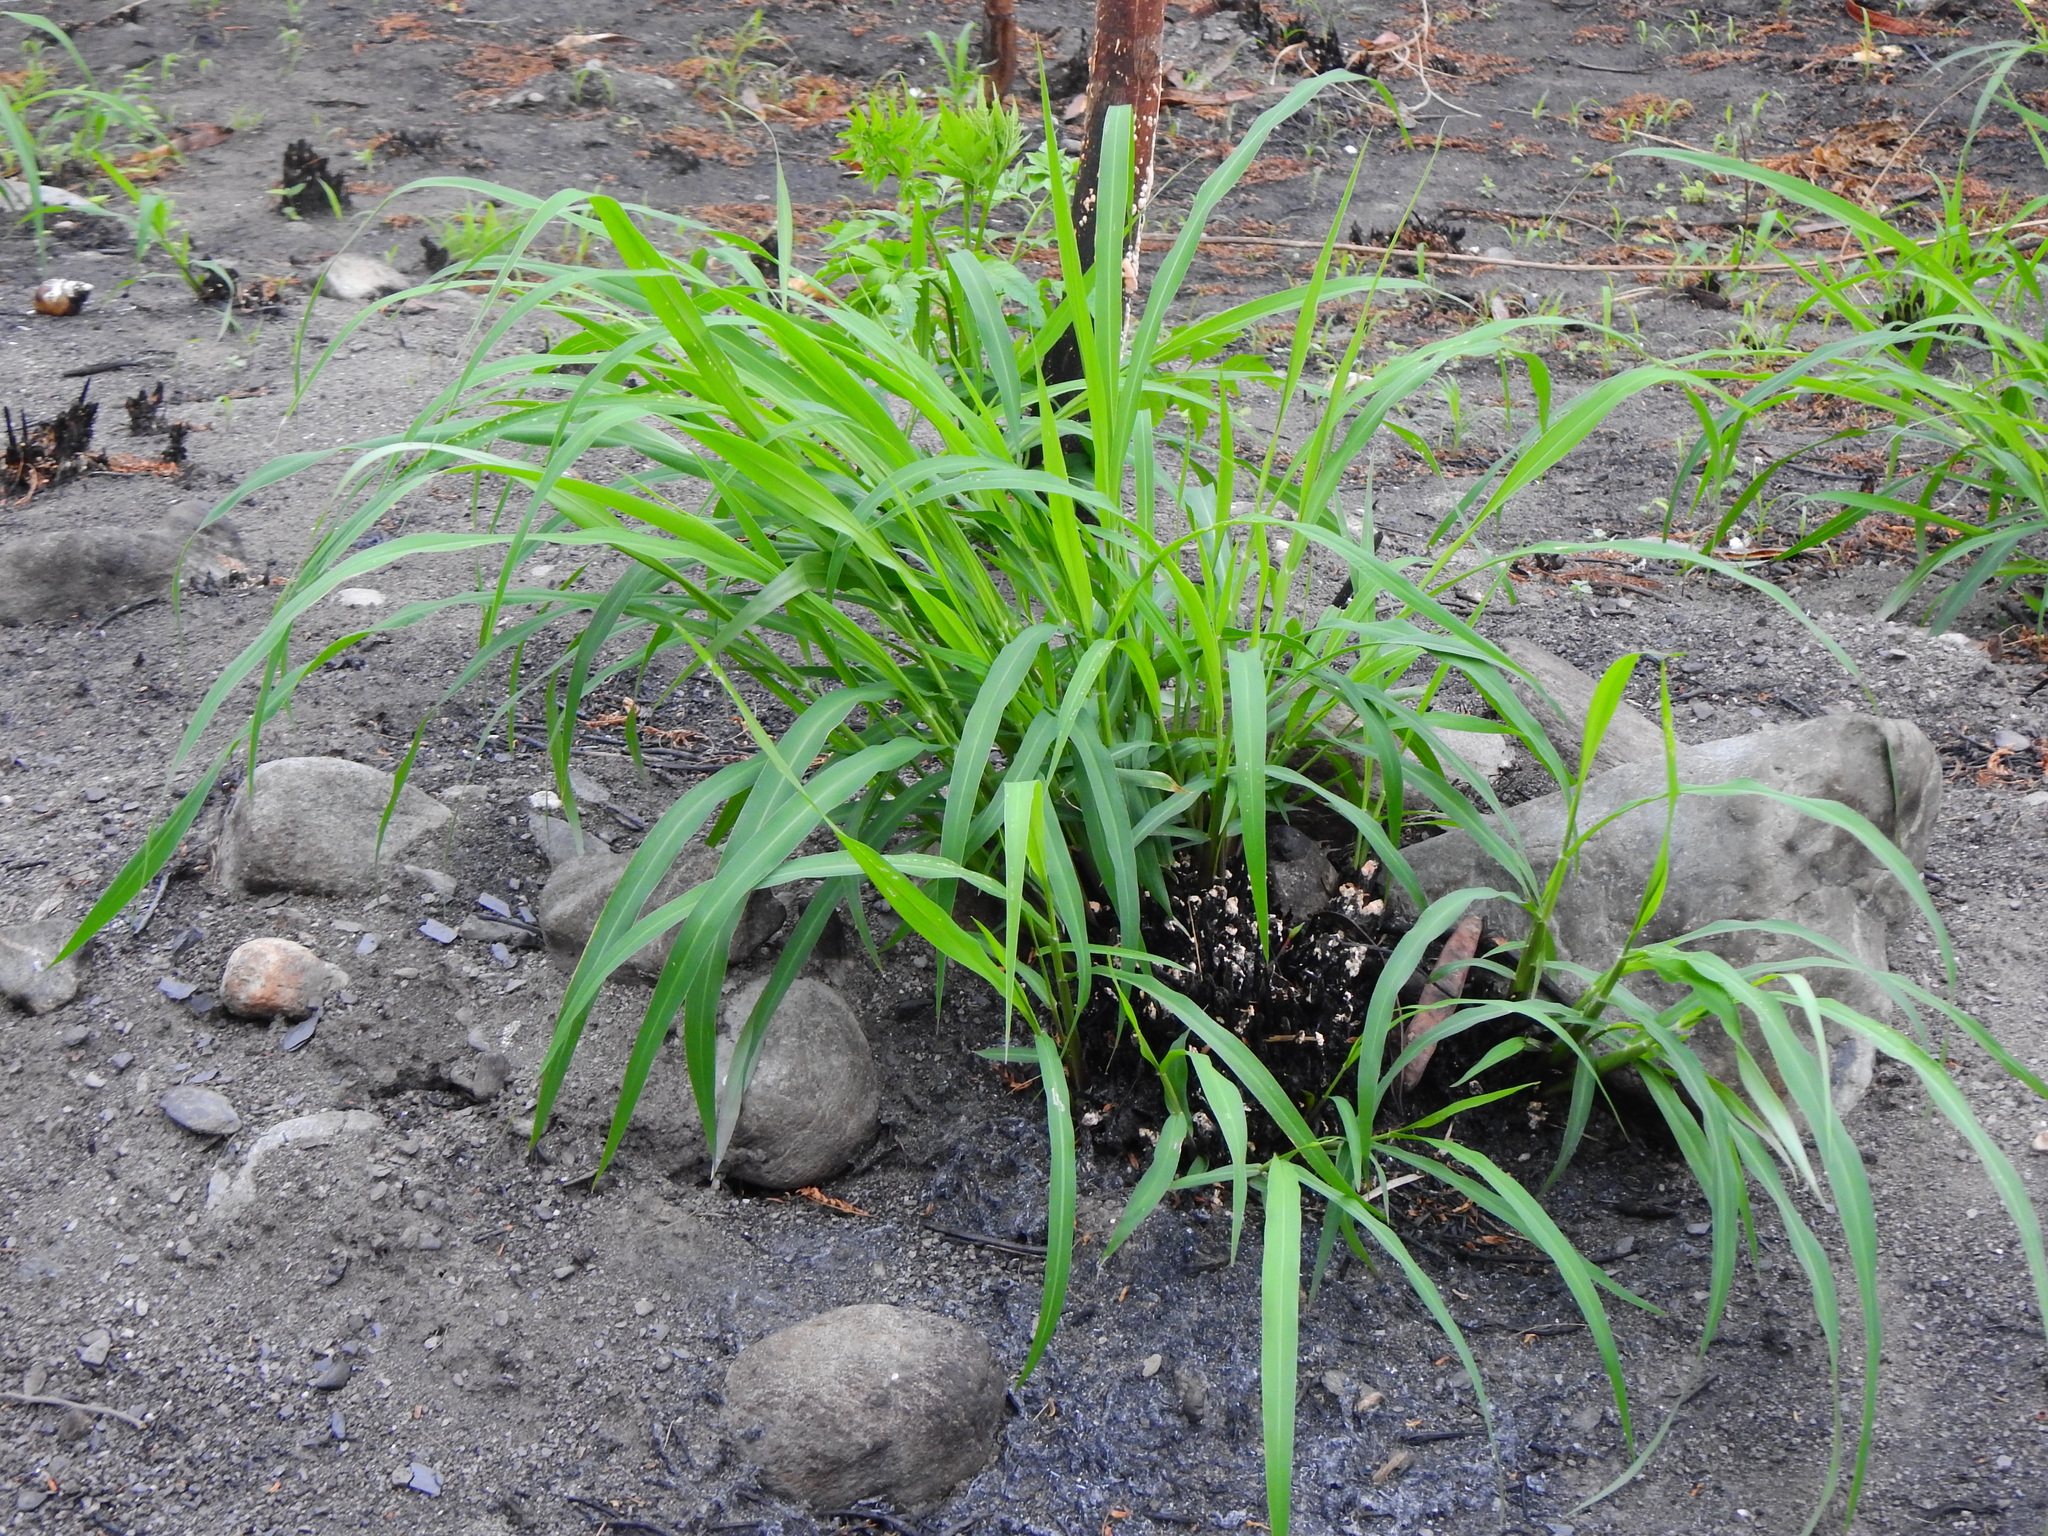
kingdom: Plantae
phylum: Tracheophyta
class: Liliopsida
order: Poales
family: Poaceae
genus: Megathyrsus
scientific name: Megathyrsus maximus
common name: Guineagrass
